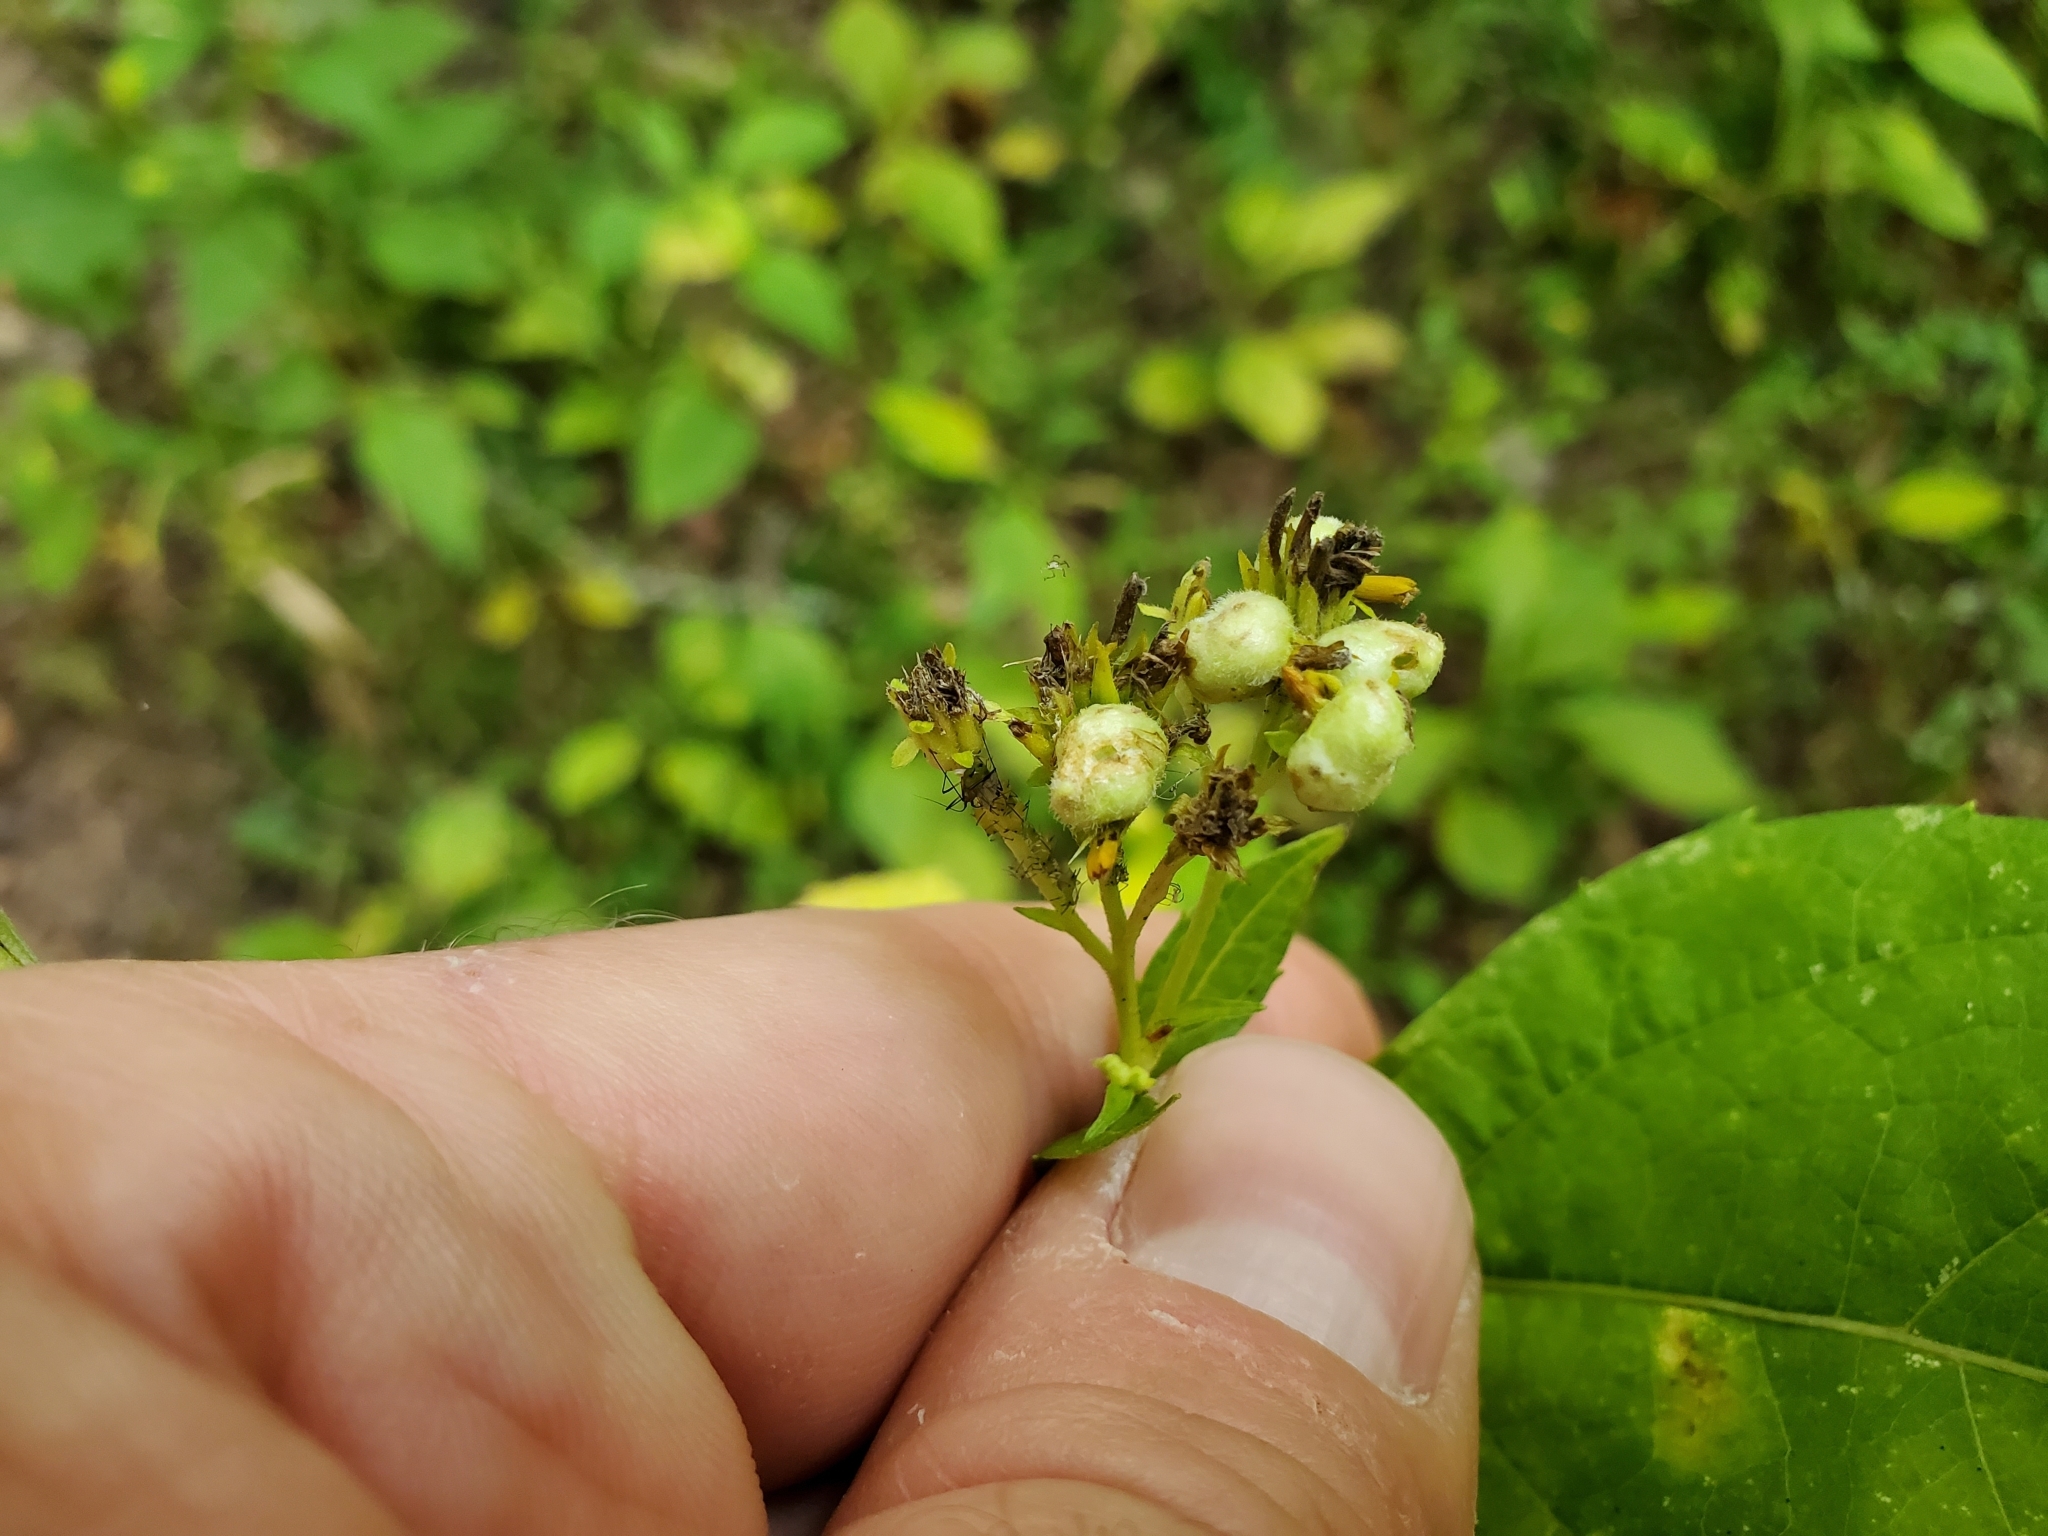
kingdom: Animalia
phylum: Arthropoda
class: Insecta
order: Diptera
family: Cecidomyiidae
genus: Schizomyia
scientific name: Schizomyia
